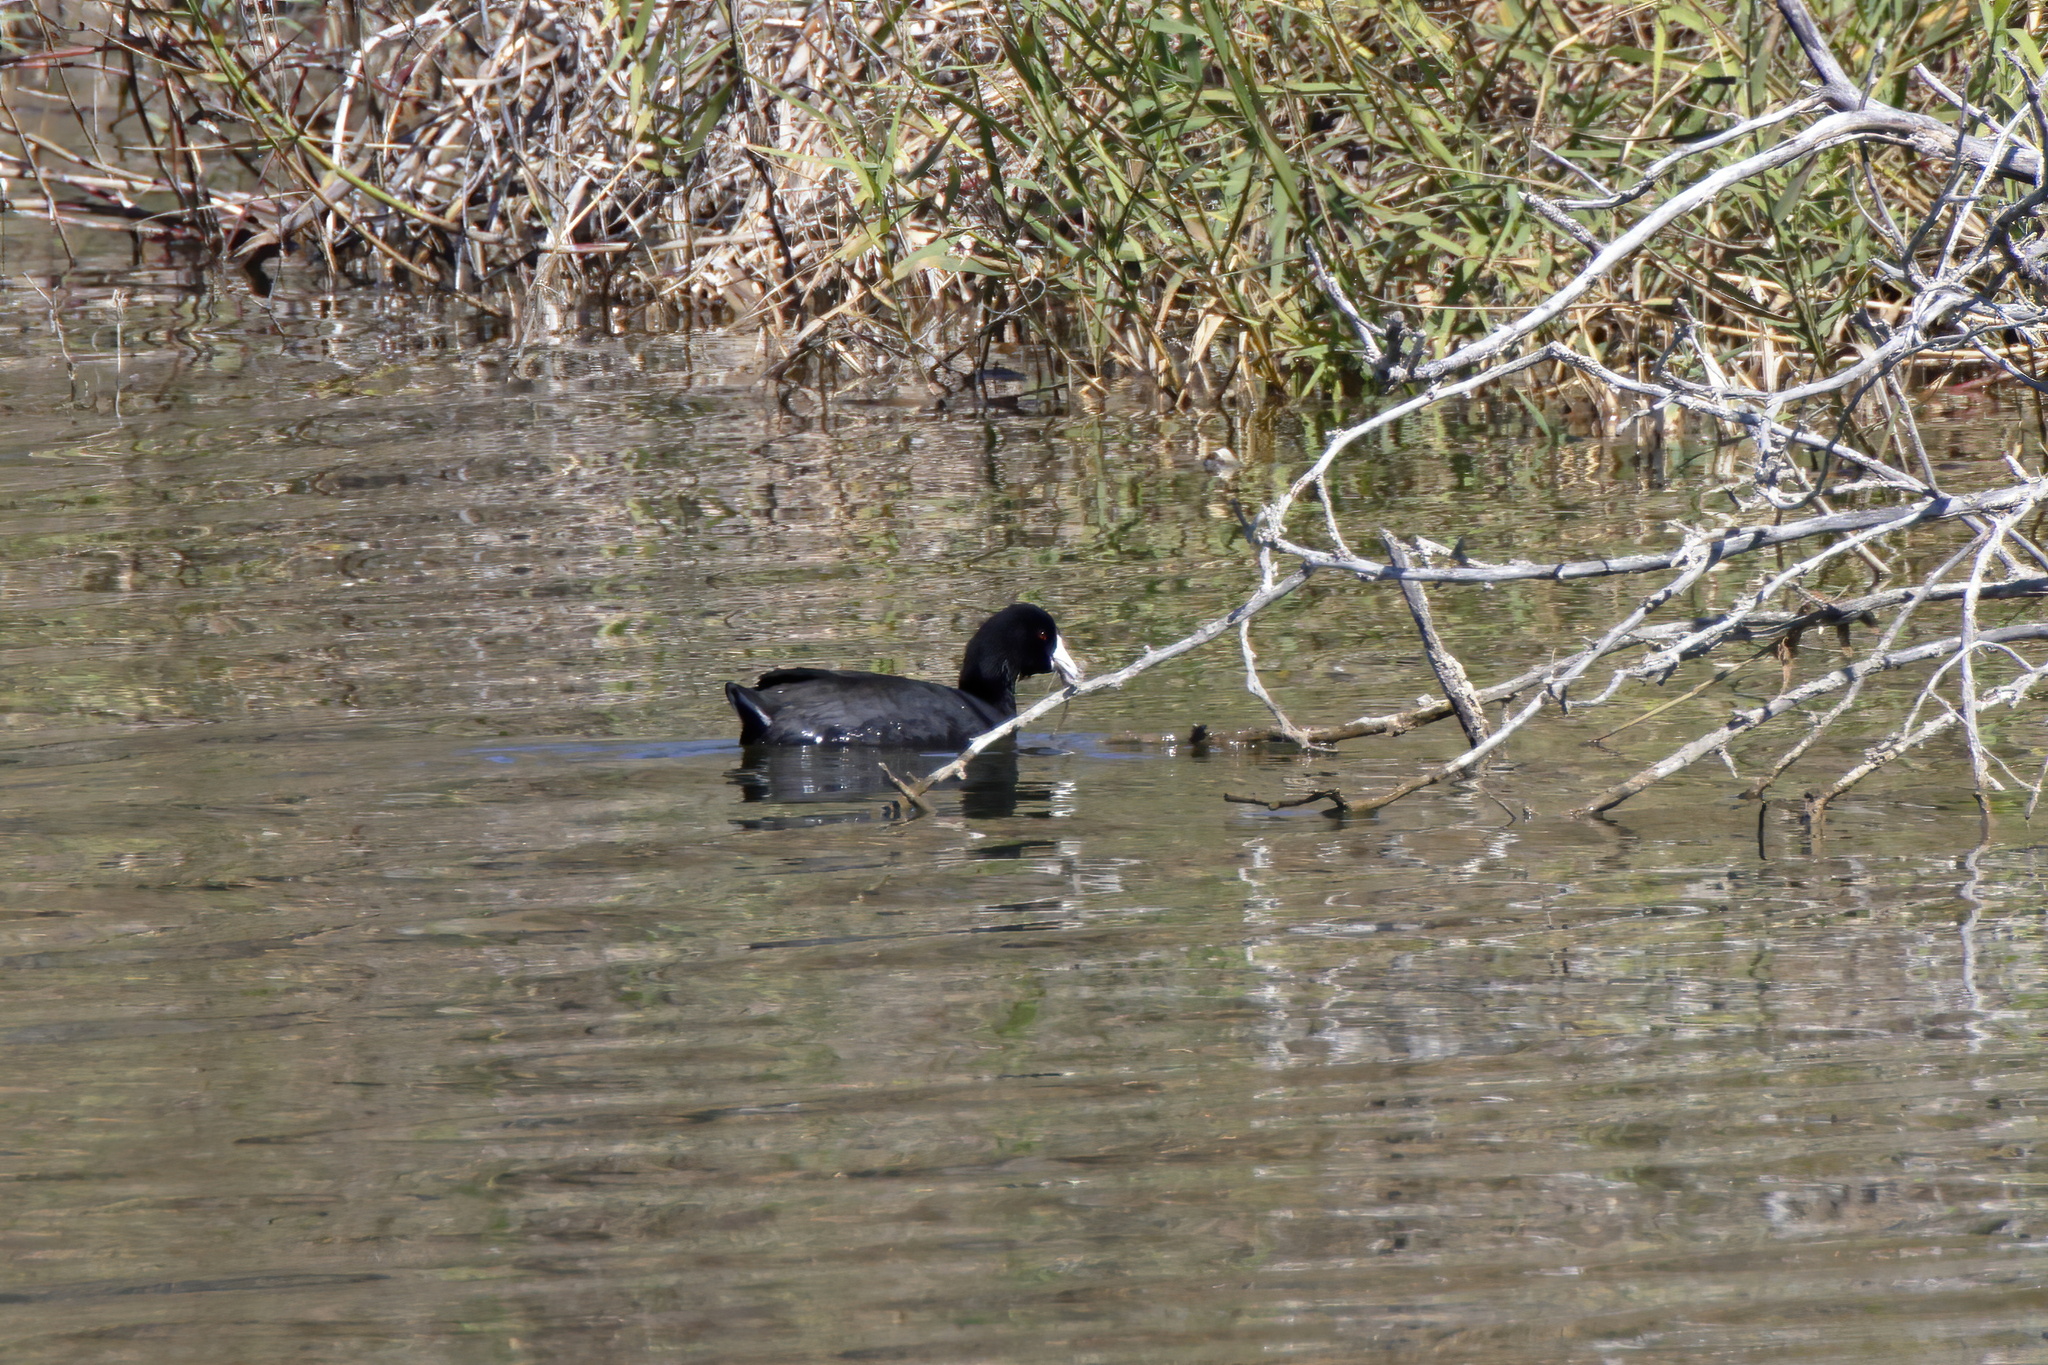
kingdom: Animalia
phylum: Chordata
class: Aves
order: Gruiformes
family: Rallidae
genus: Fulica
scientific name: Fulica americana
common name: American coot
